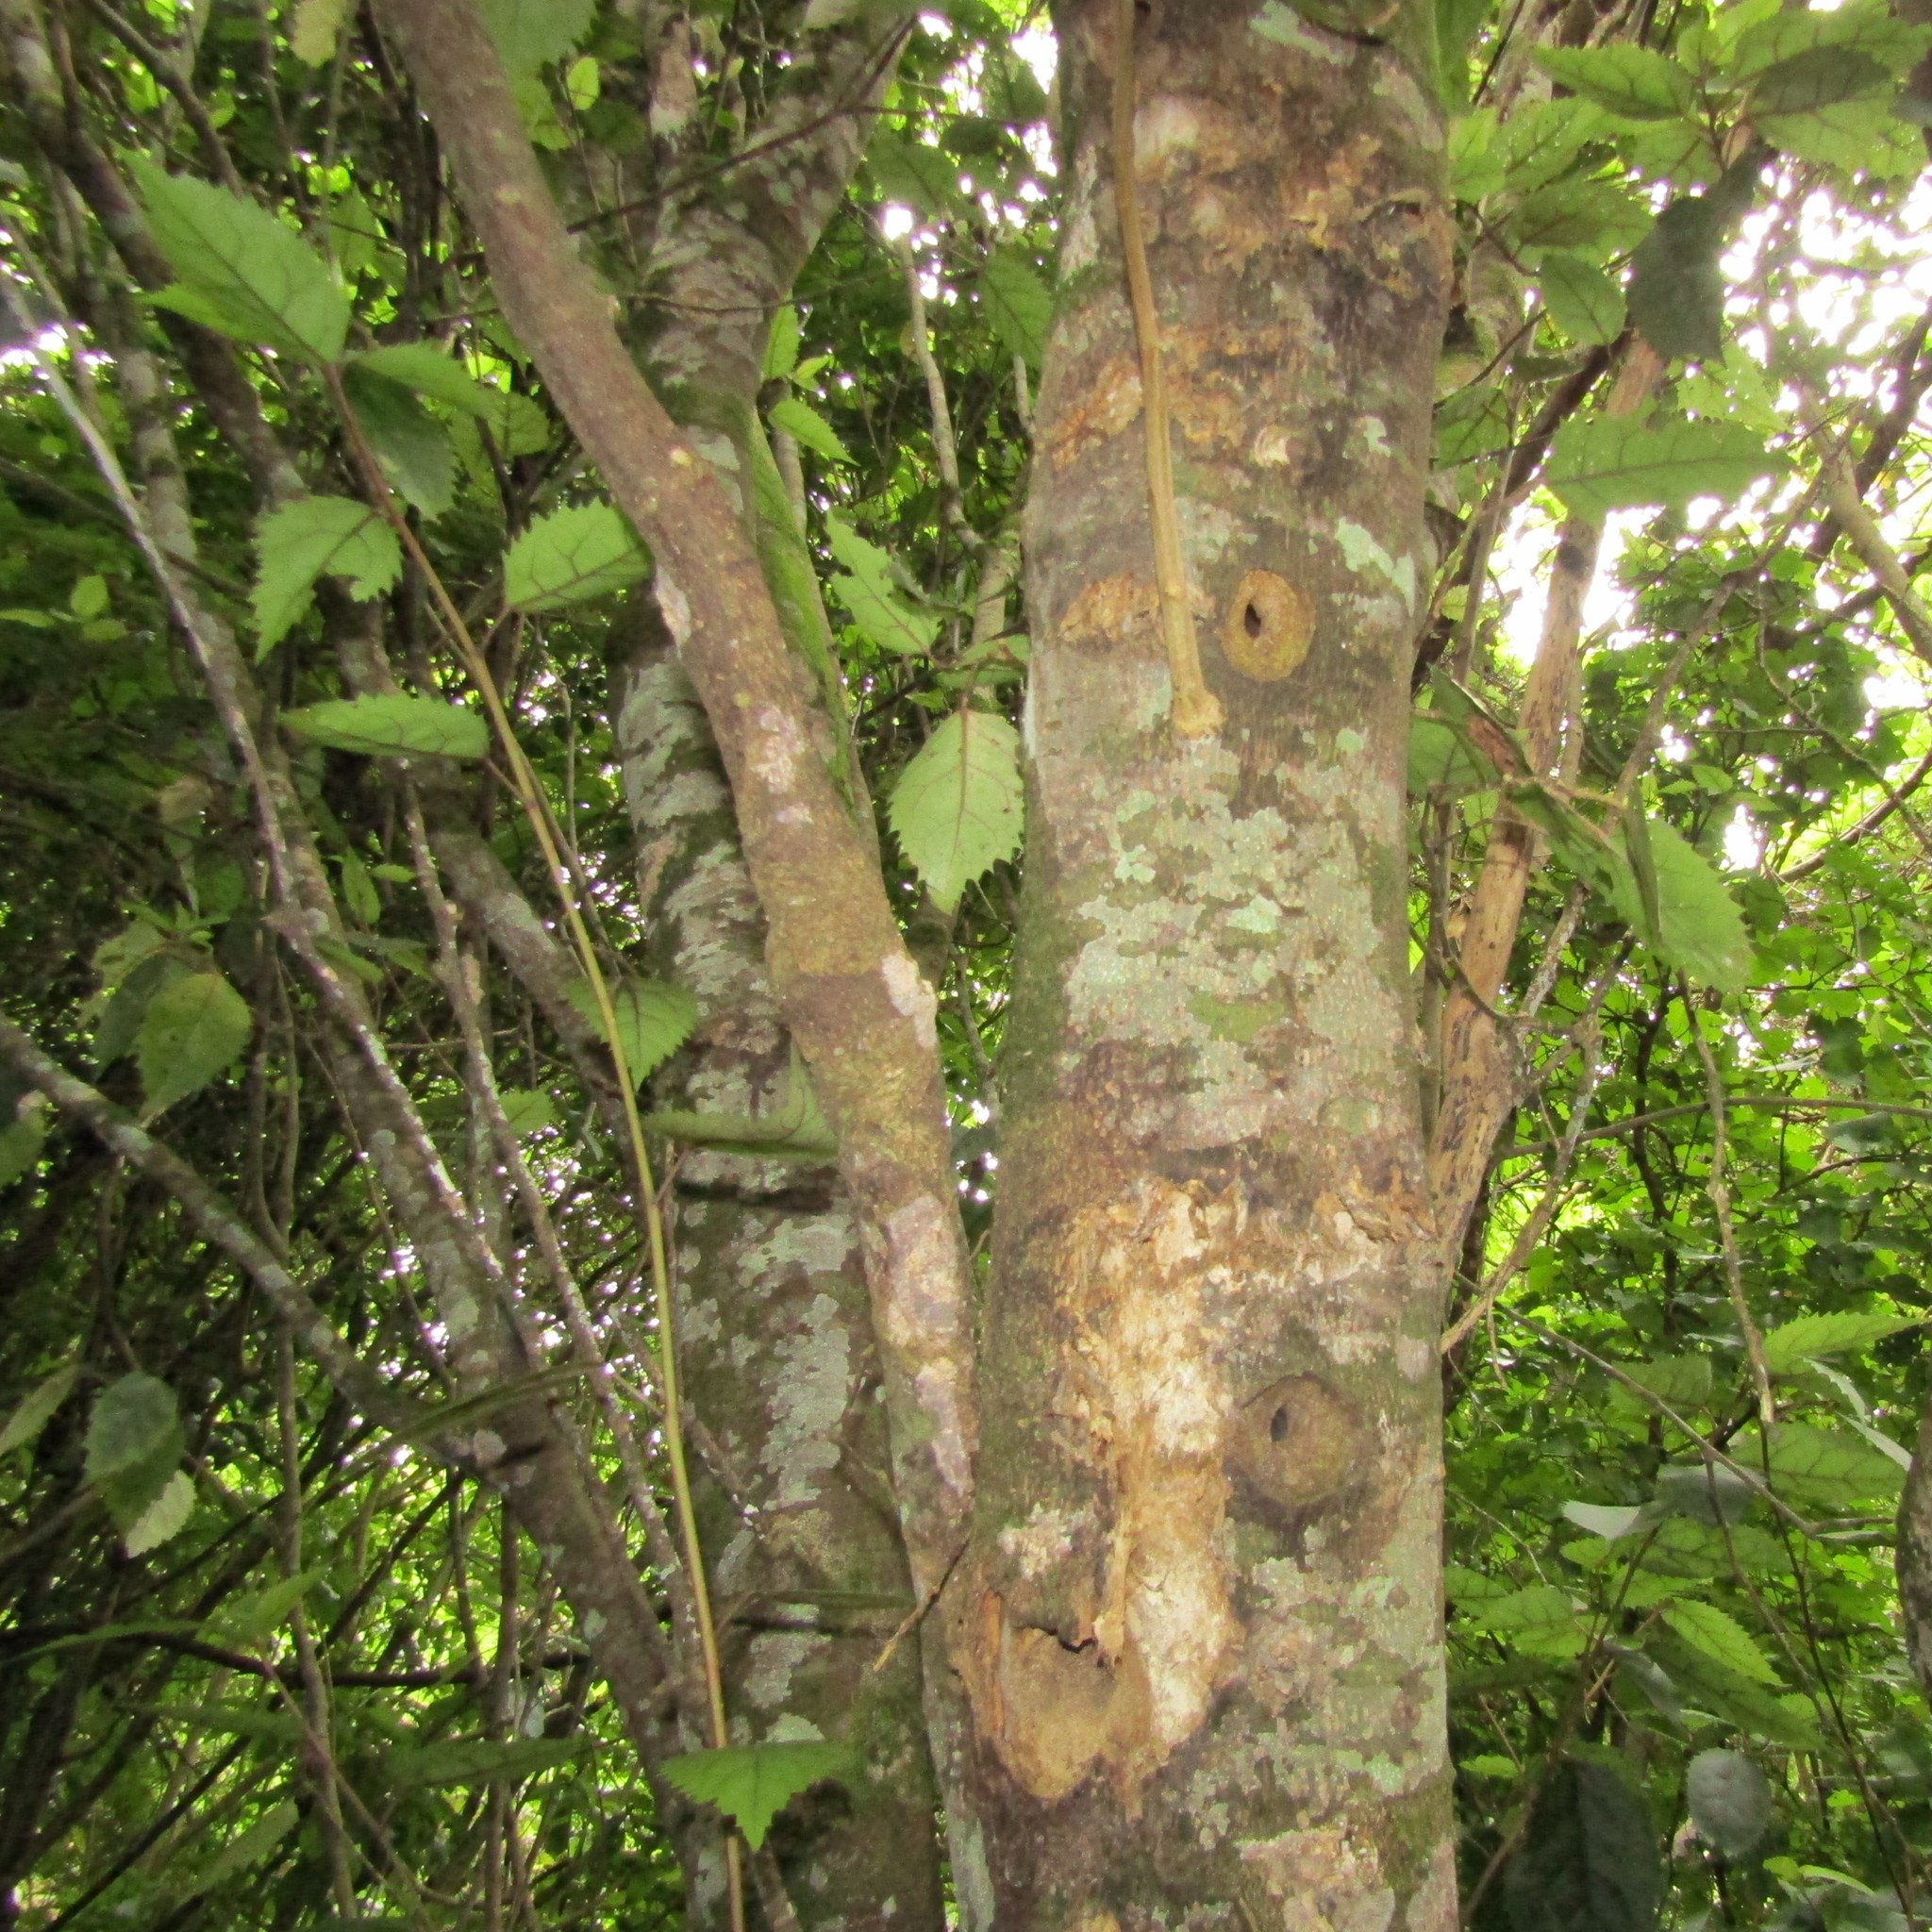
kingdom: Plantae
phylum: Tracheophyta
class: Magnoliopsida
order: Malvales
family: Malvaceae
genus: Hoheria
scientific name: Hoheria populnea
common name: Lacebark
